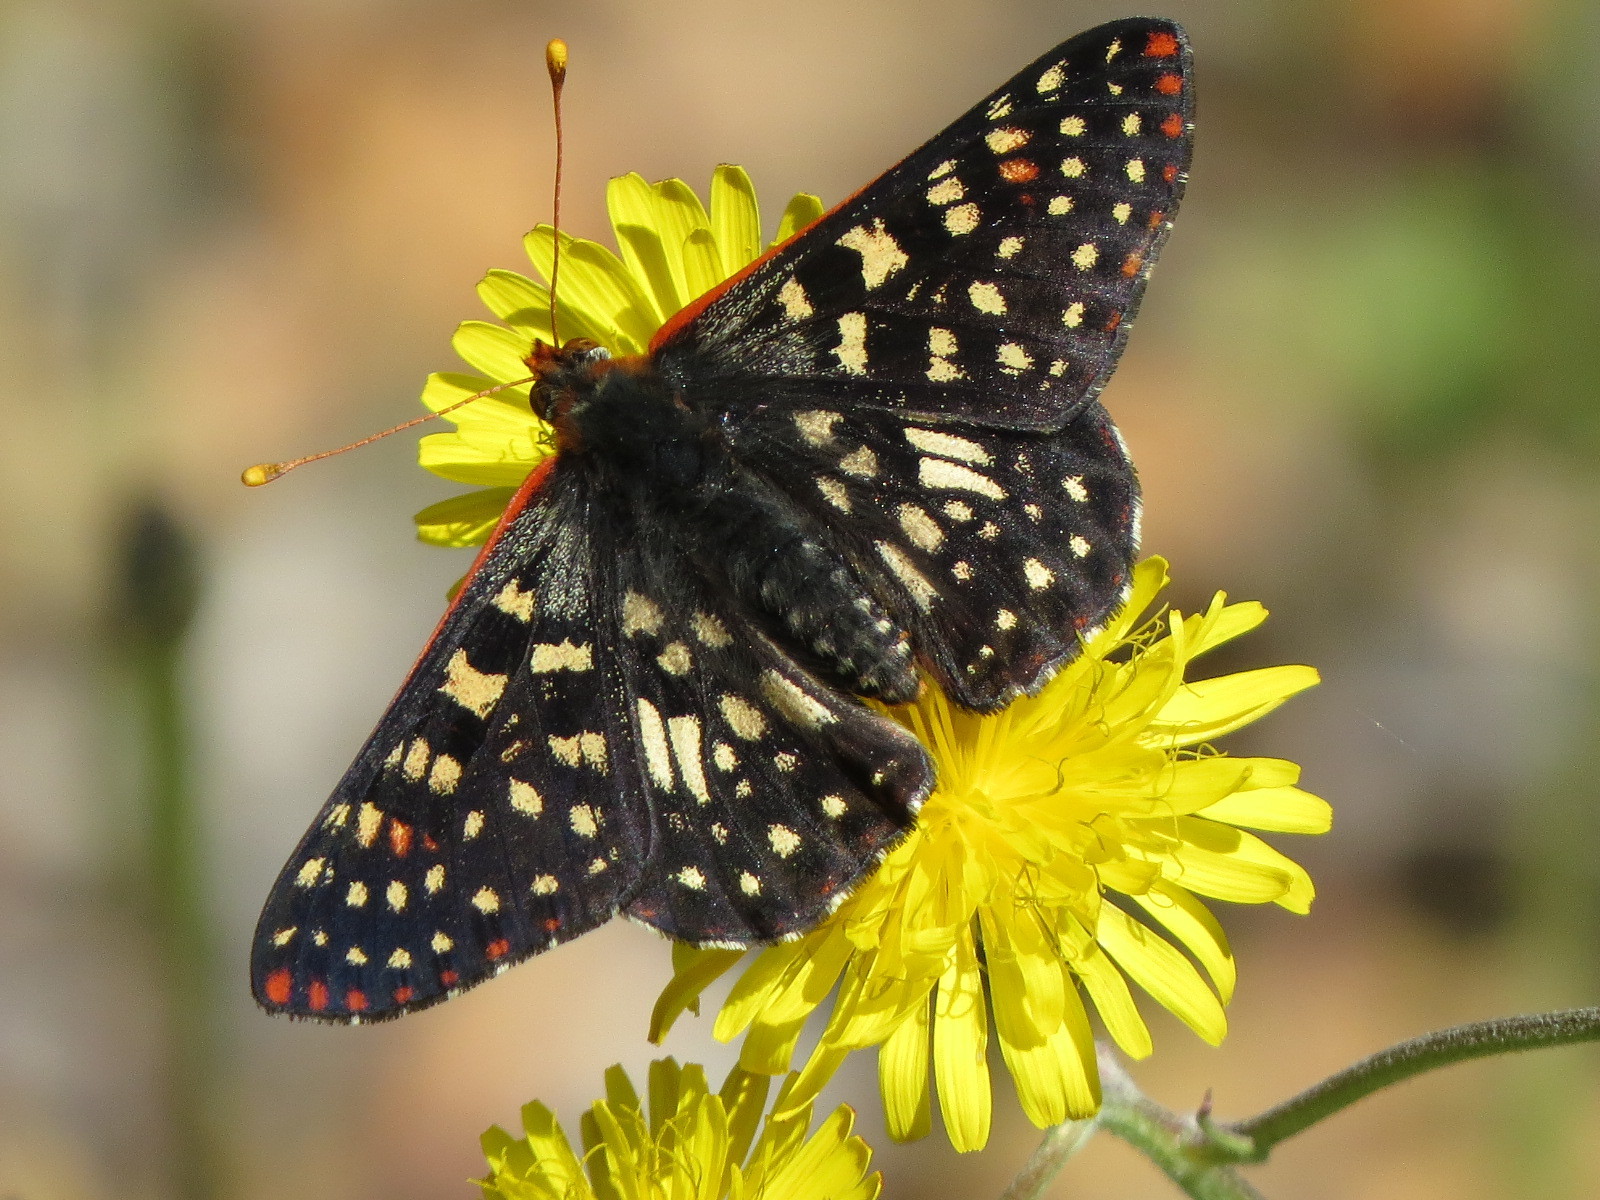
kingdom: Animalia
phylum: Arthropoda
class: Insecta
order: Lepidoptera
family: Nymphalidae
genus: Occidryas
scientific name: Occidryas chalcedona
